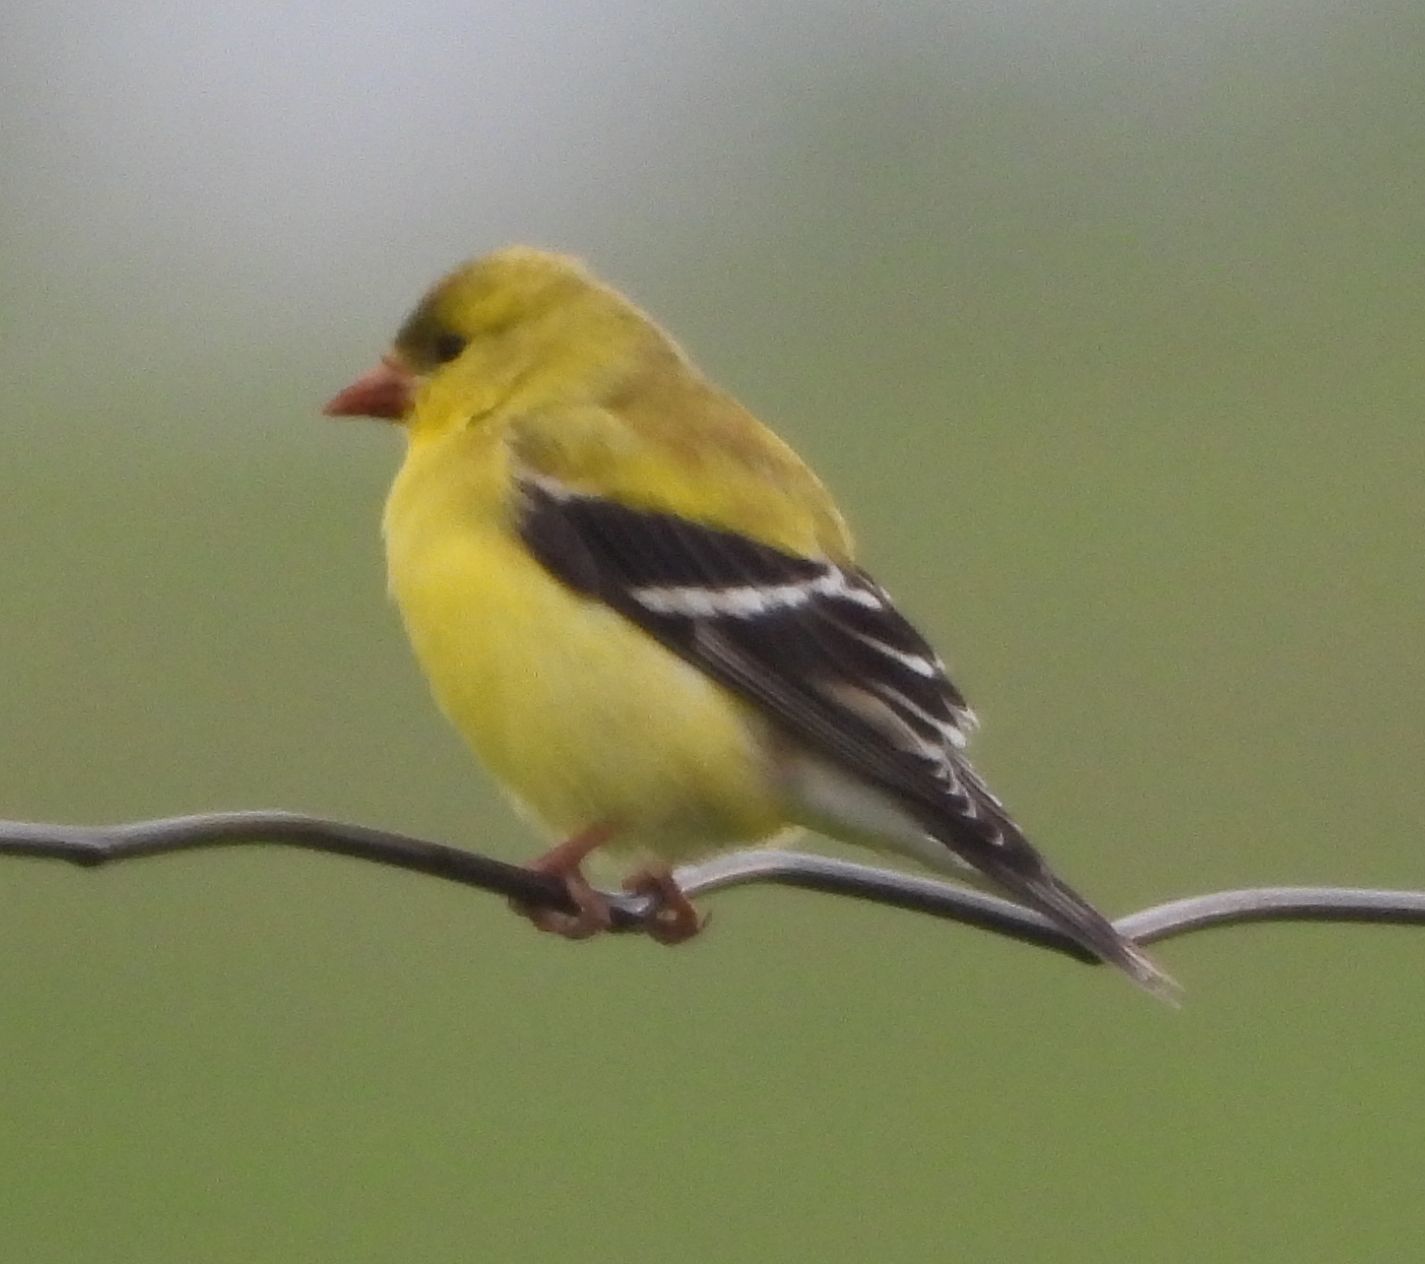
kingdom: Animalia
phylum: Chordata
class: Aves
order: Passeriformes
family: Fringillidae
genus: Spinus
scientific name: Spinus tristis
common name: American goldfinch
